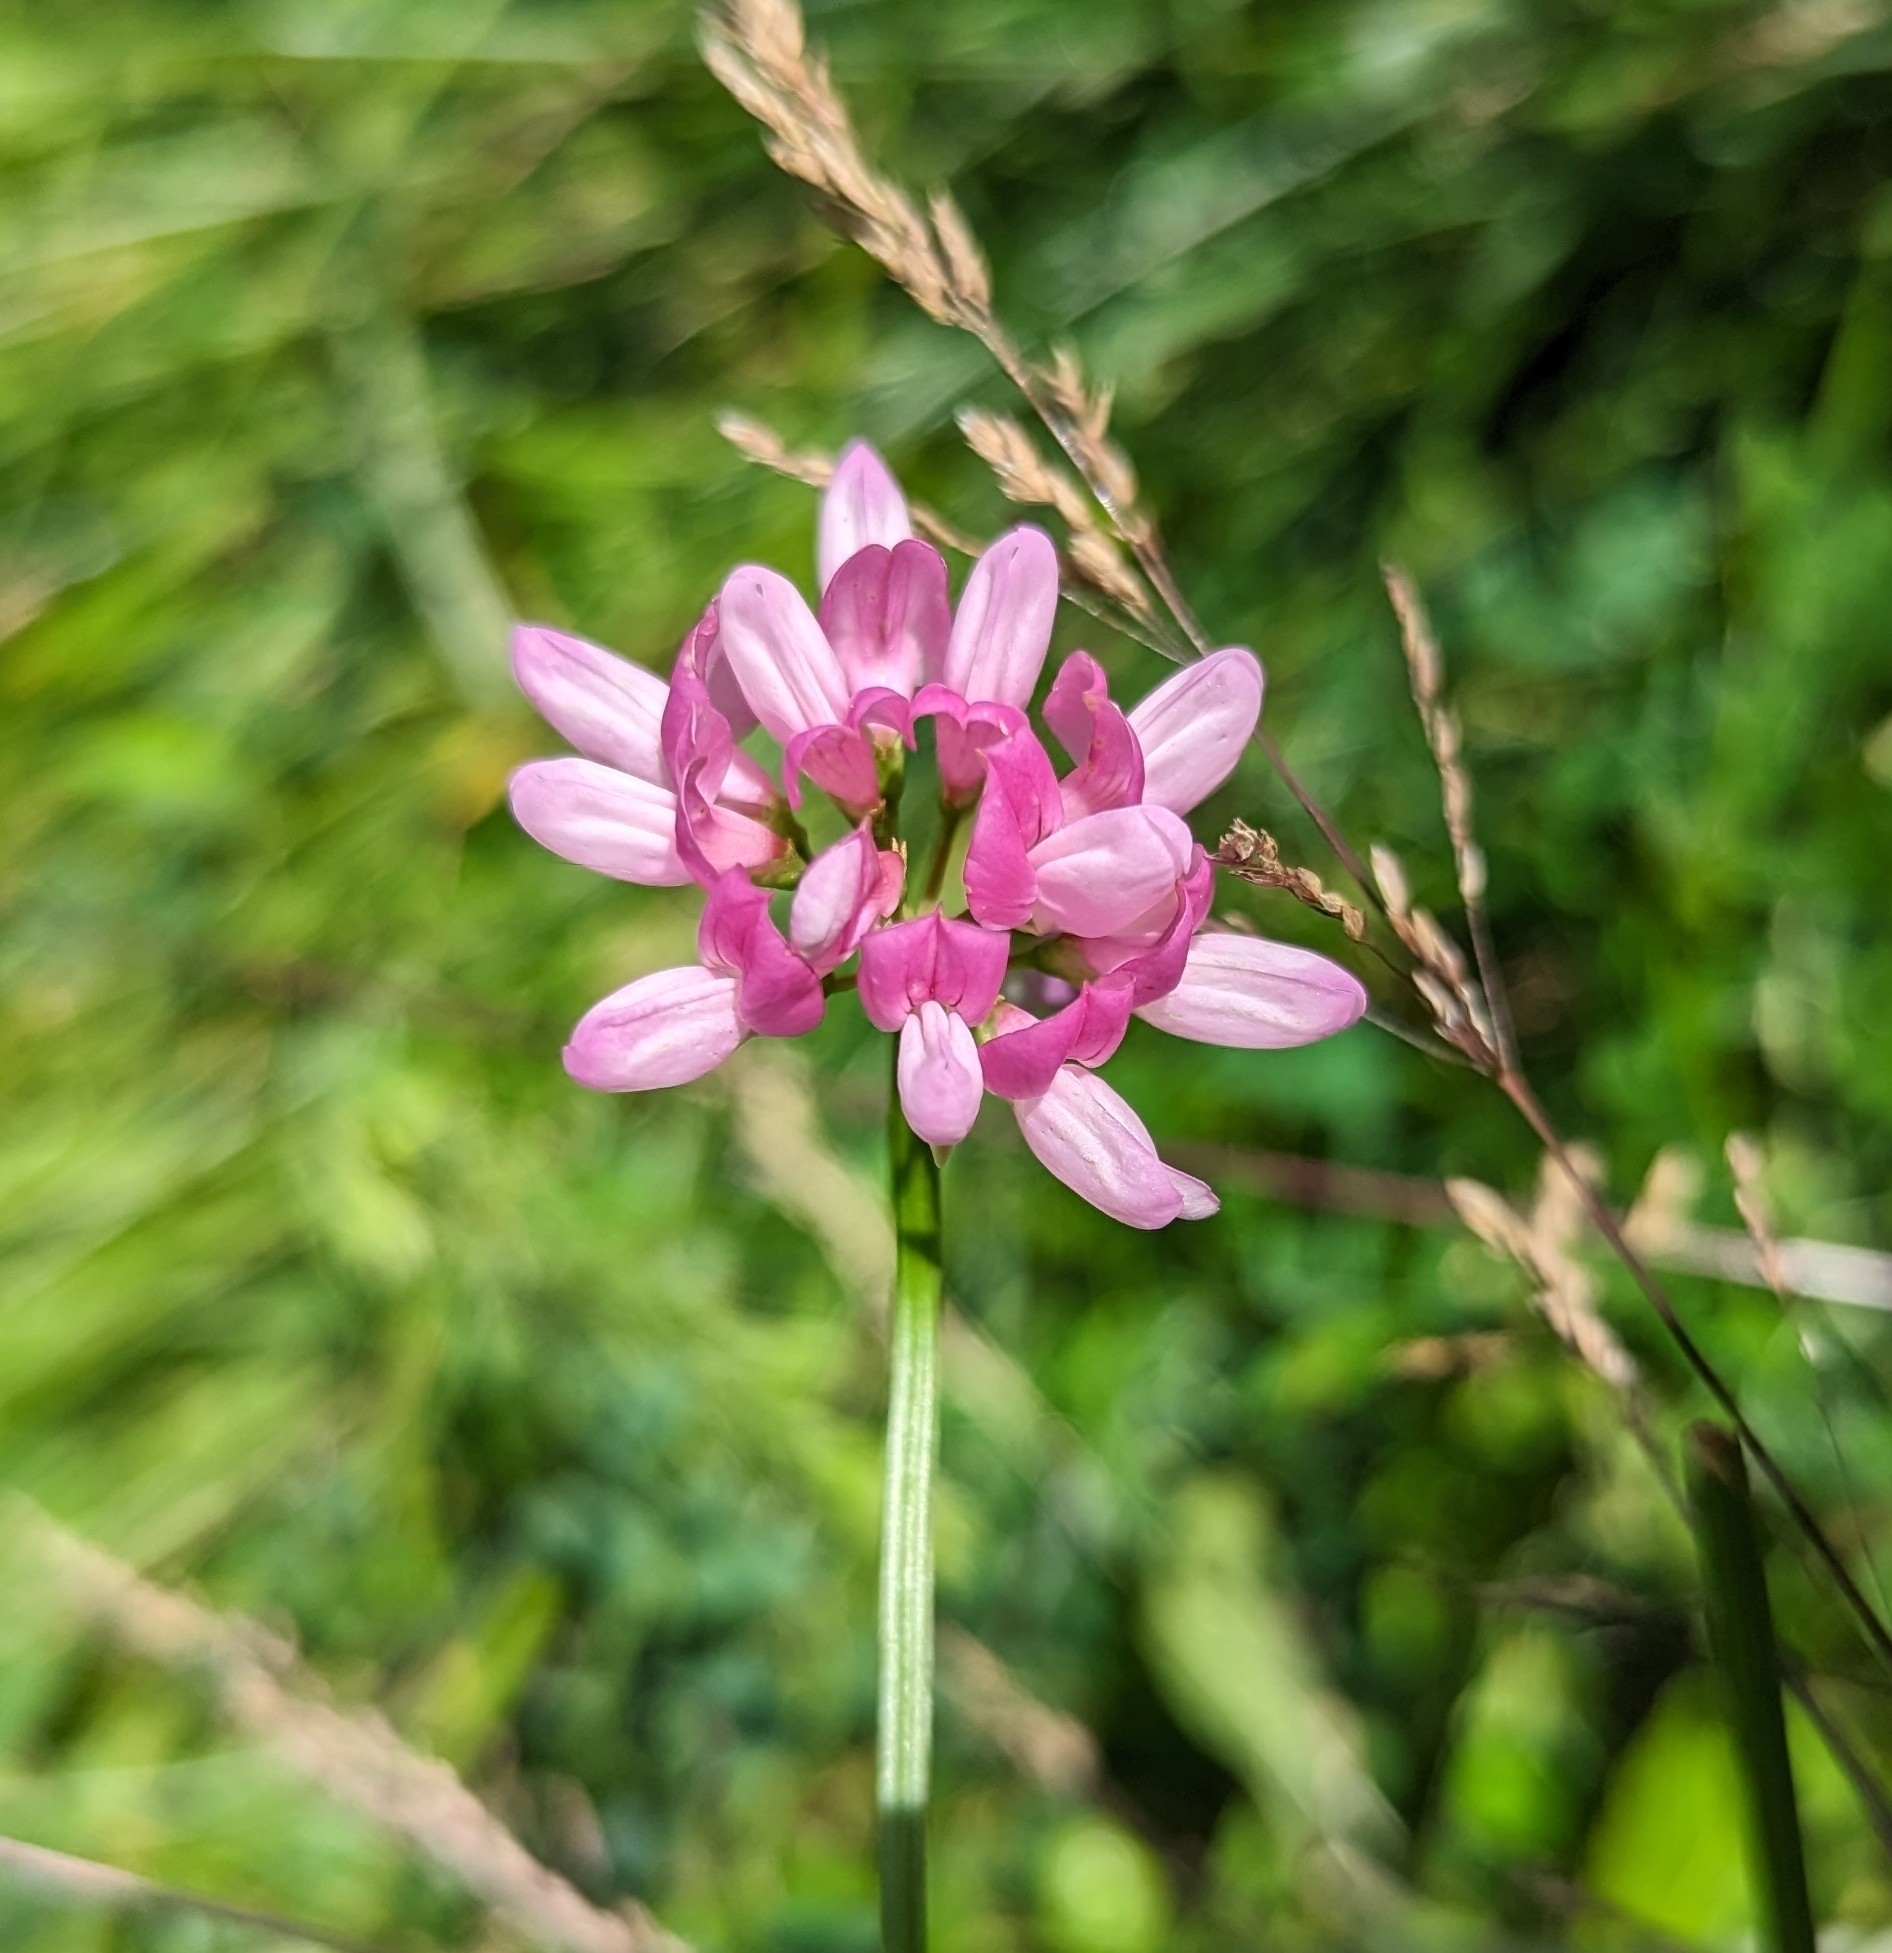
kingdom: Plantae
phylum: Tracheophyta
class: Magnoliopsida
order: Fabales
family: Fabaceae
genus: Coronilla
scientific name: Coronilla varia
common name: Crownvetch
